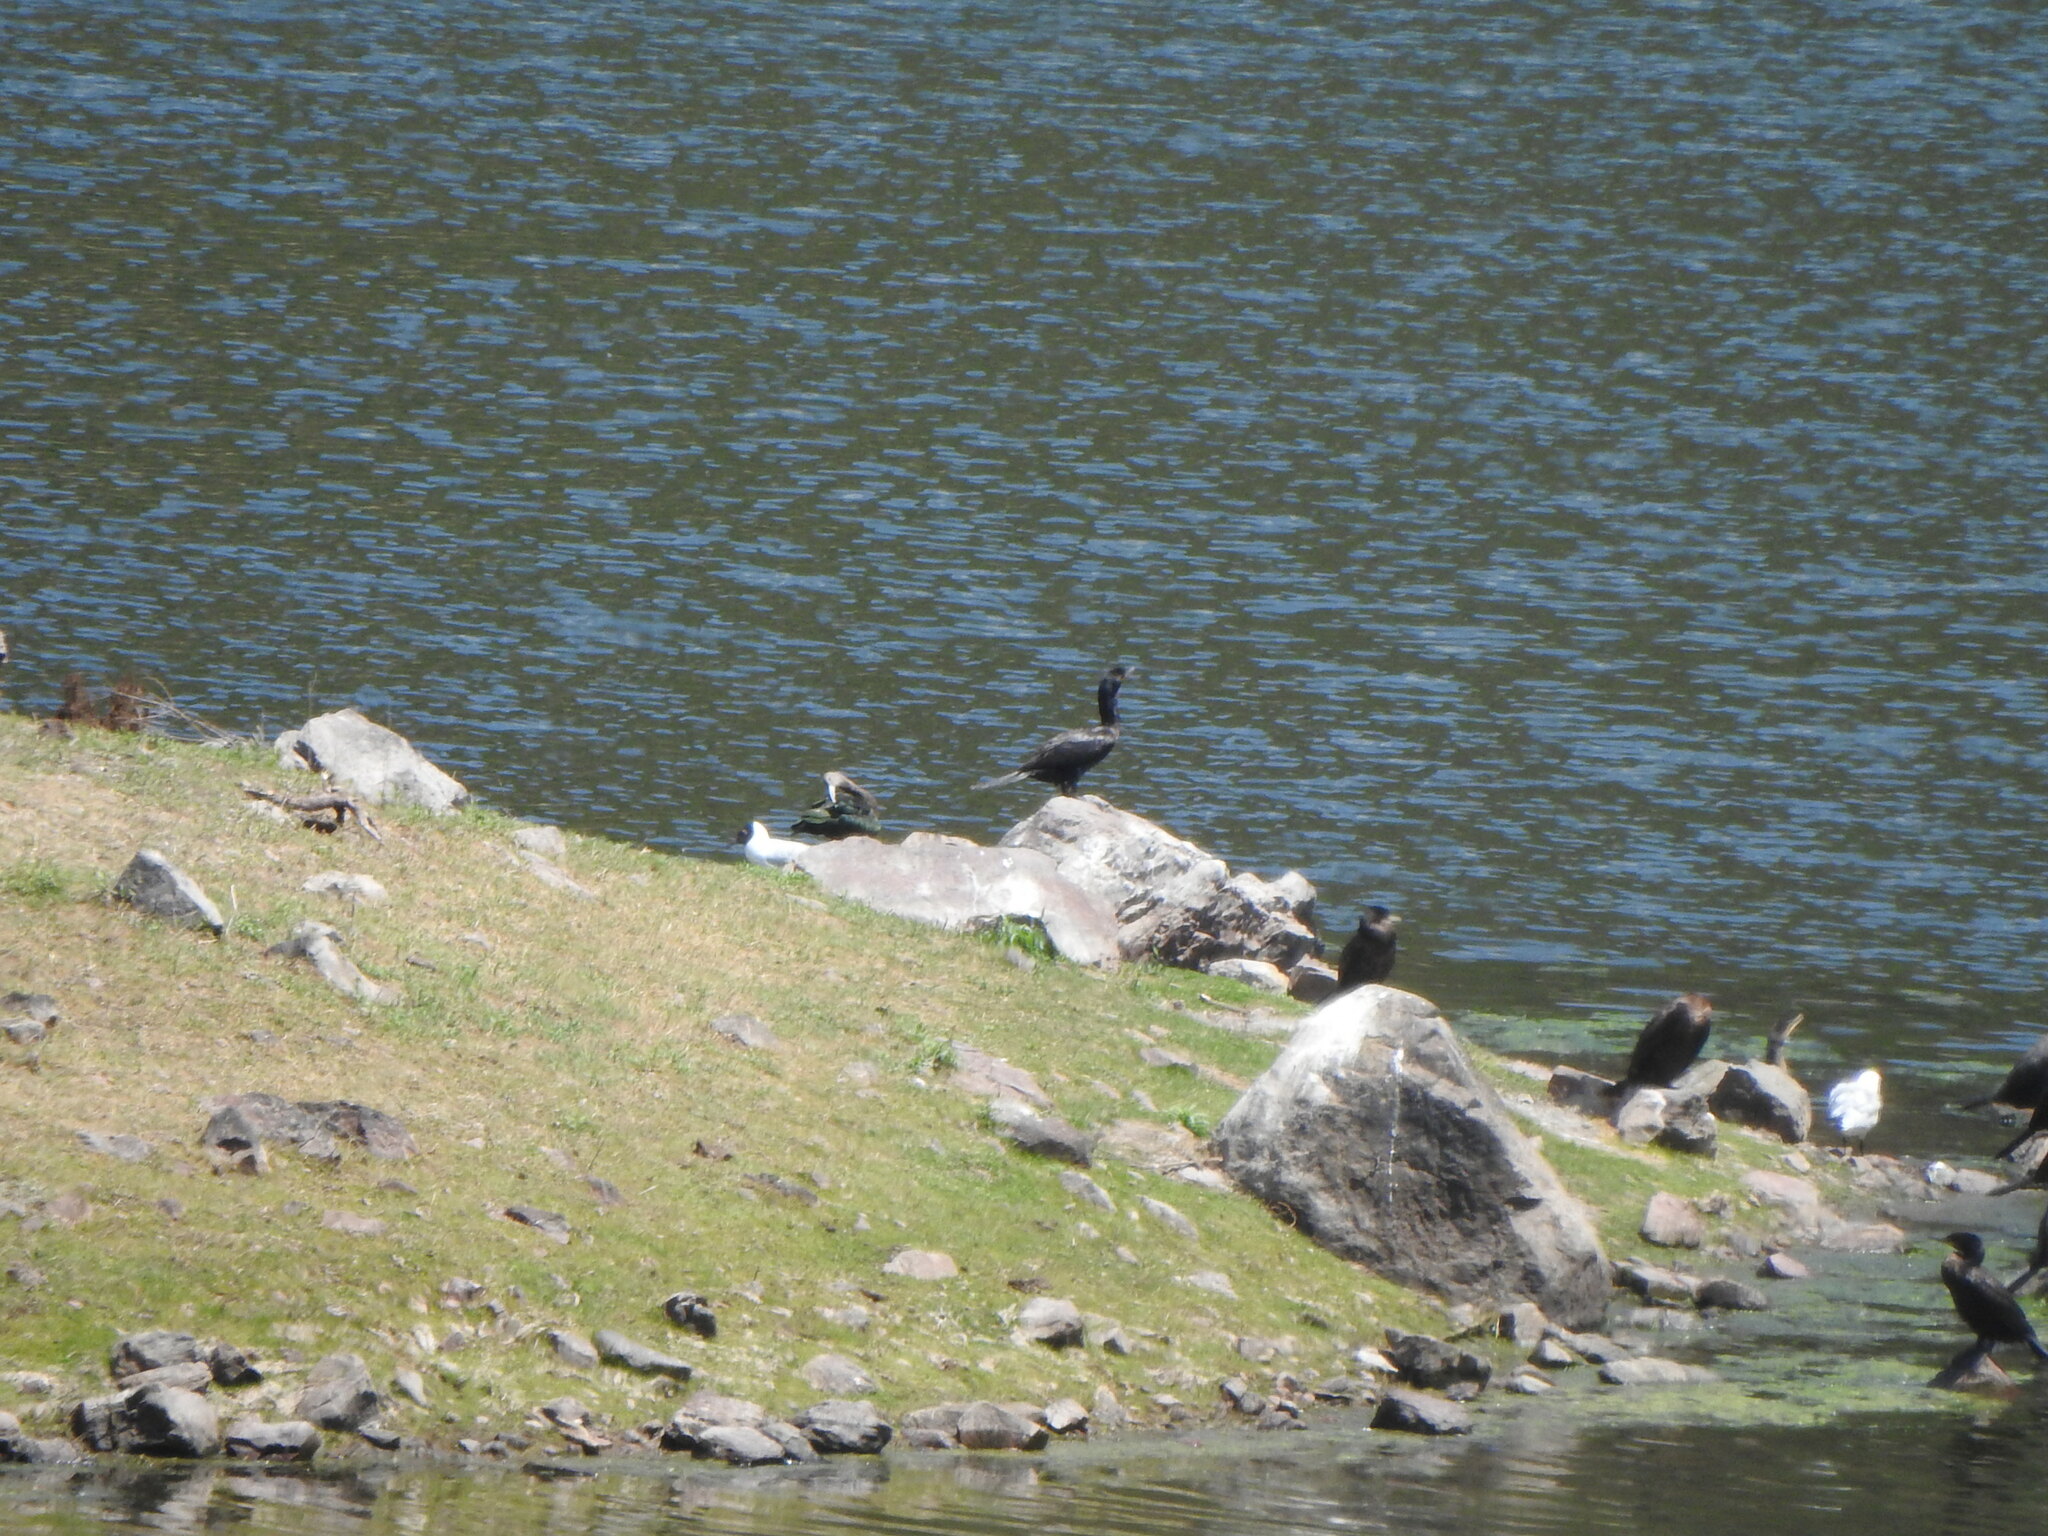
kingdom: Animalia
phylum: Chordata
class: Aves
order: Suliformes
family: Phalacrocoracidae
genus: Phalacrocorax
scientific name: Phalacrocorax brasilianus
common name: Neotropic cormorant
